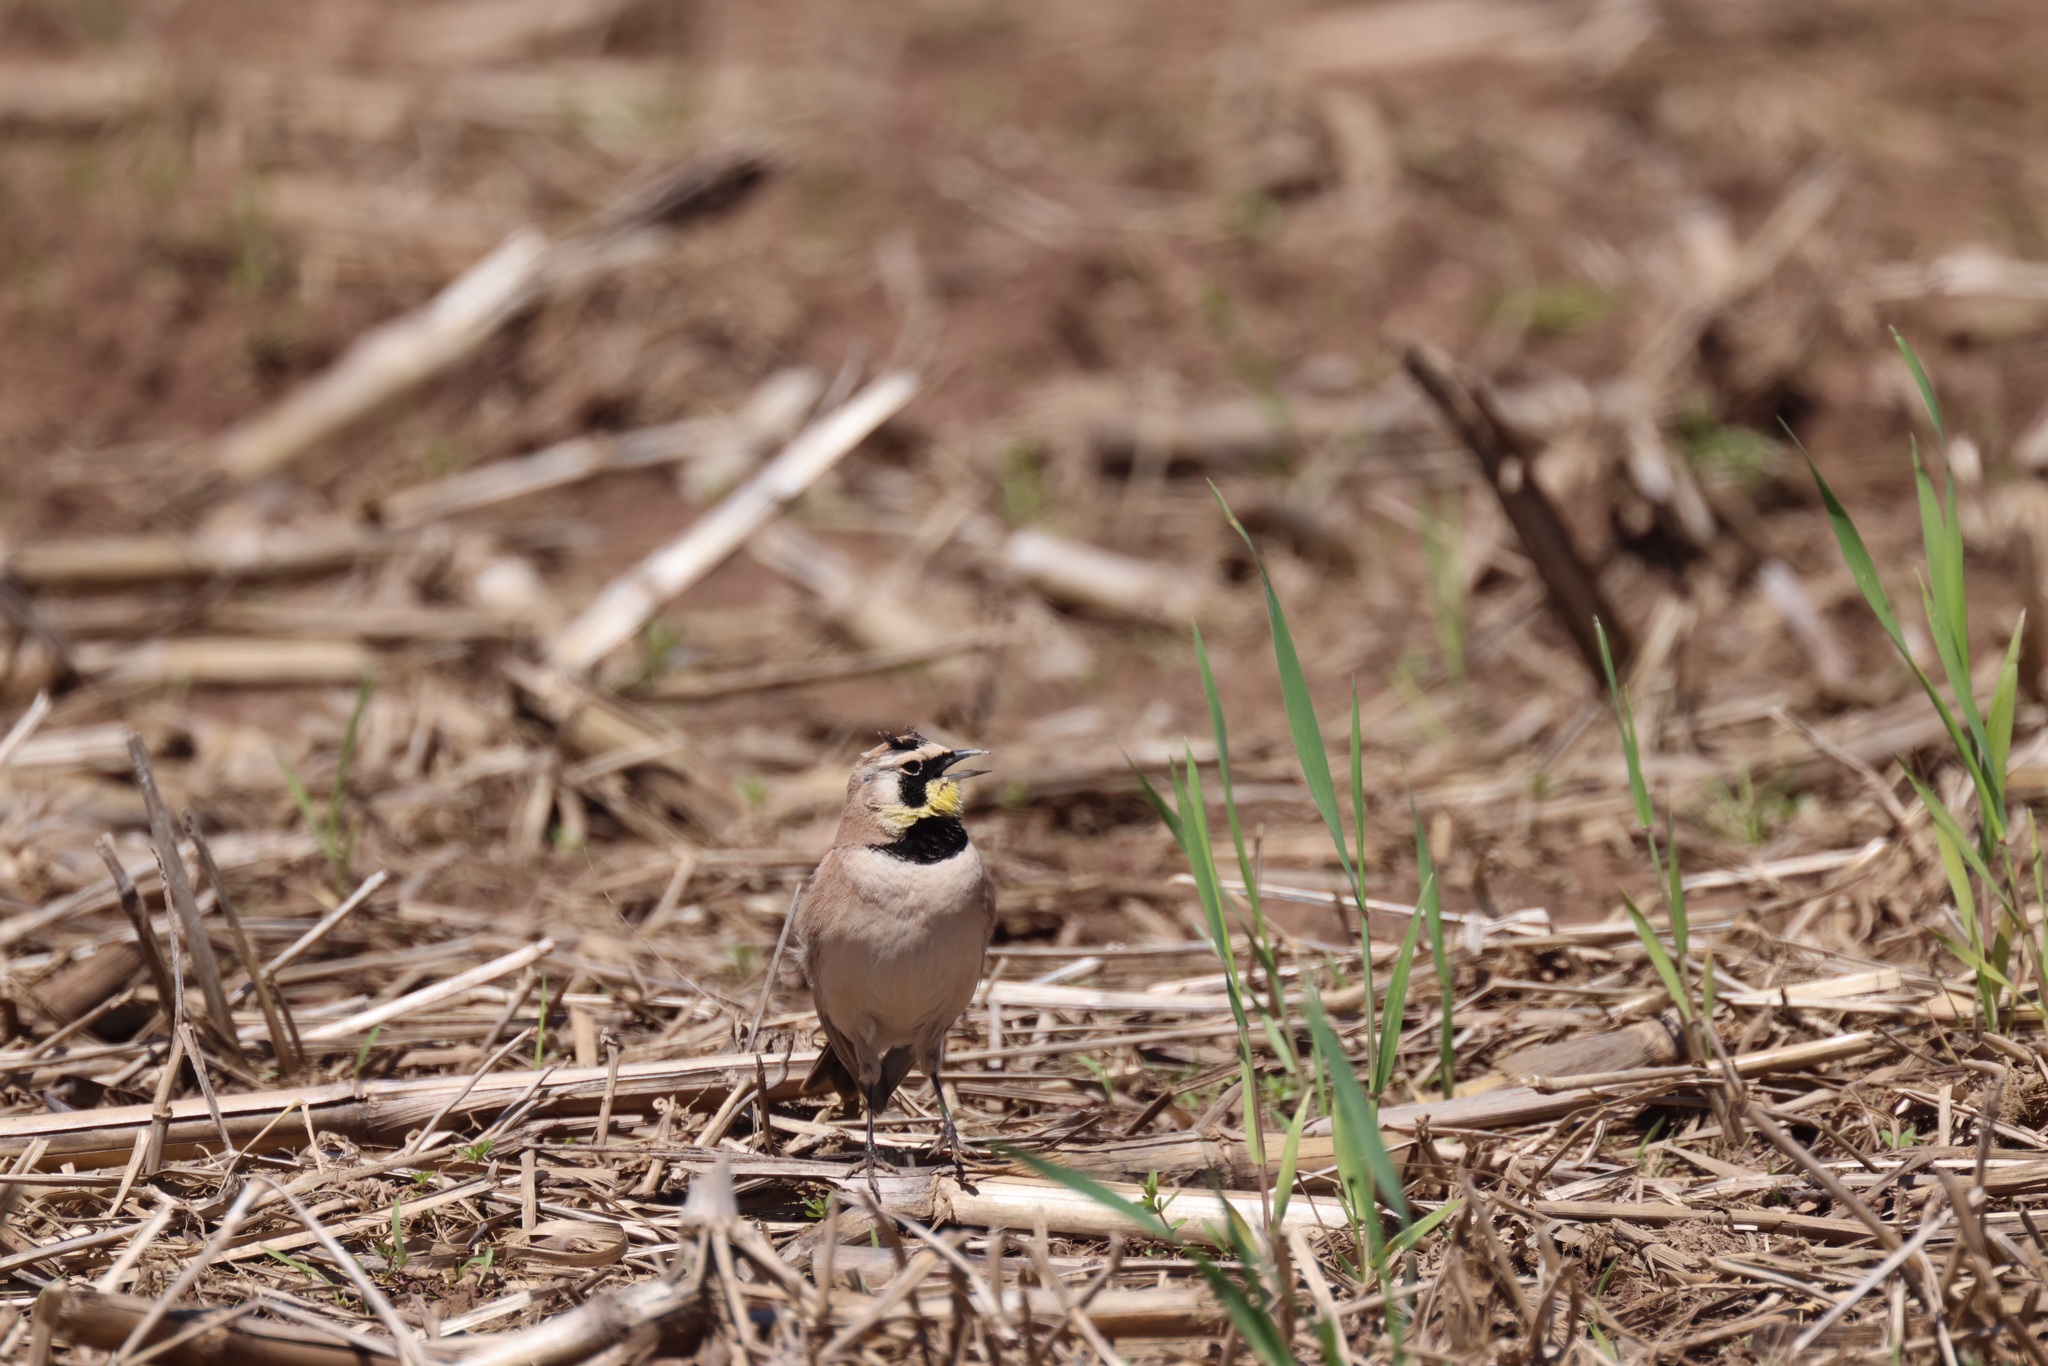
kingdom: Animalia
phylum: Chordata
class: Aves
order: Passeriformes
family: Alaudidae
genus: Eremophila
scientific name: Eremophila alpestris
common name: Horned lark
